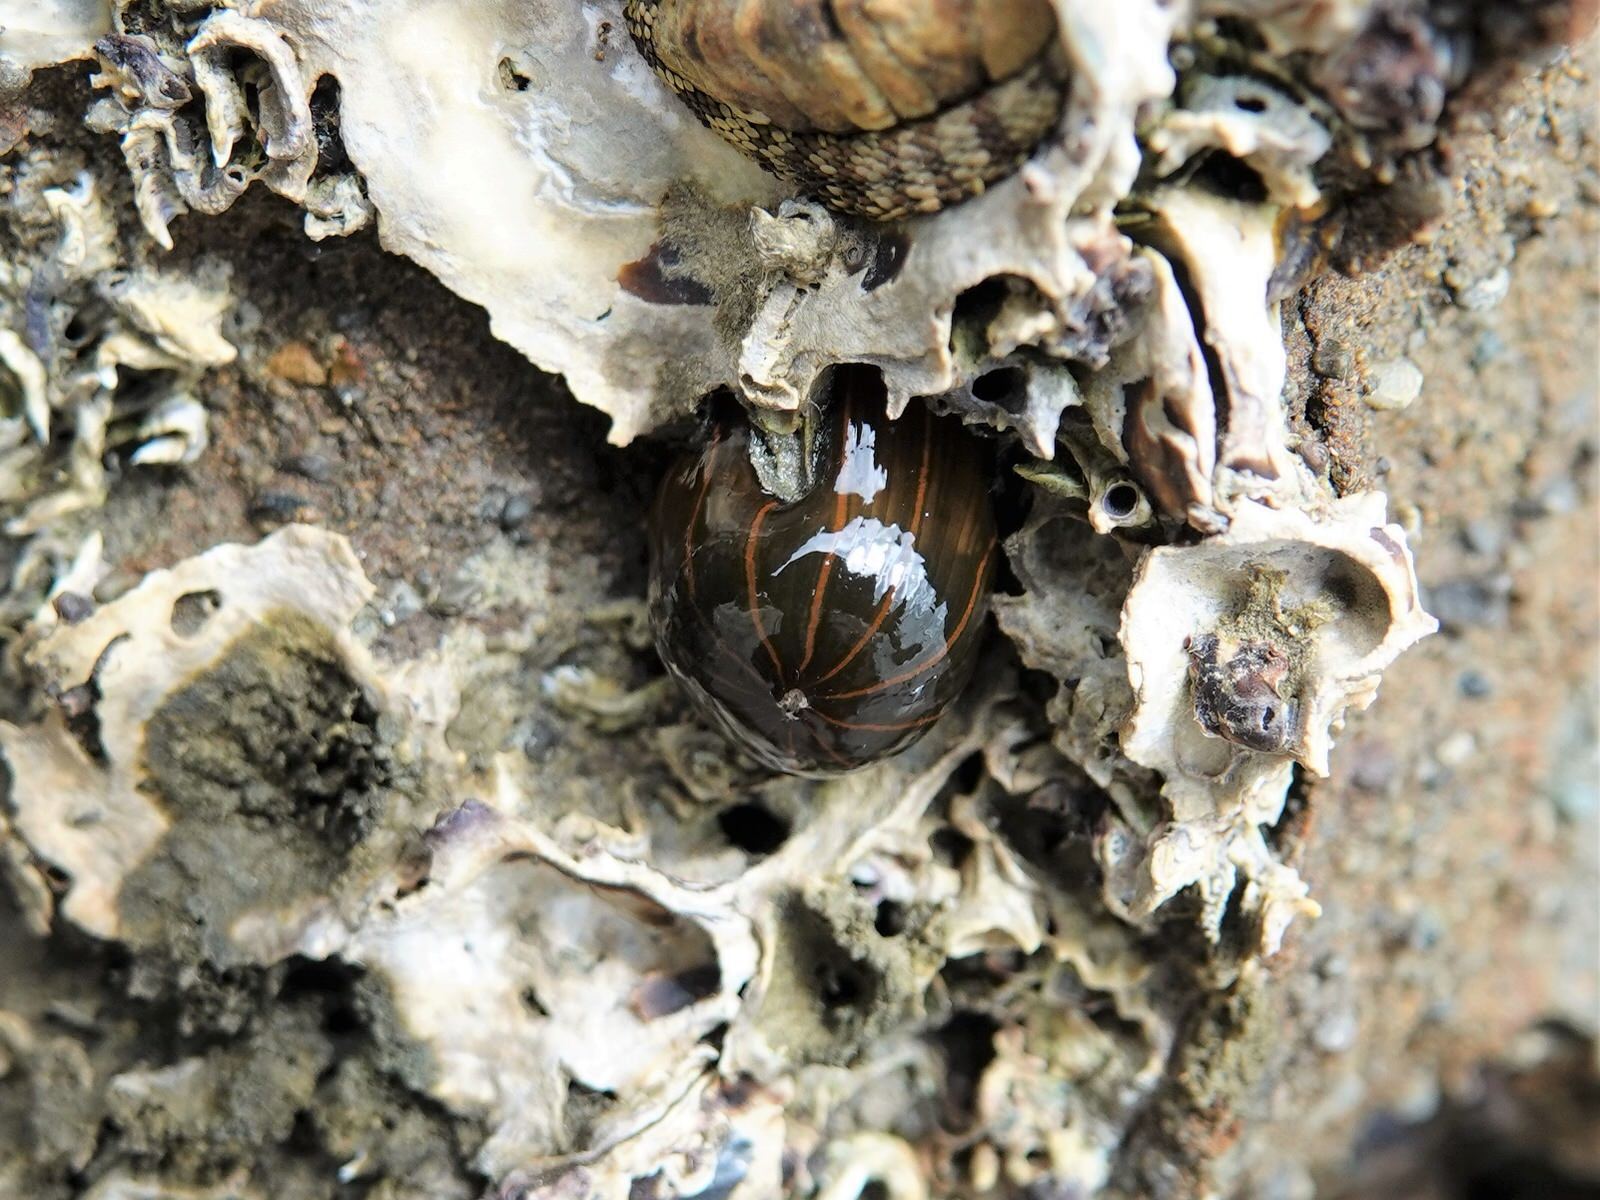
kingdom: Animalia
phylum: Cnidaria
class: Anthozoa
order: Actiniaria
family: Diadumenidae
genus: Diadumene
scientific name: Diadumene lineata
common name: Orange-striped anemone
